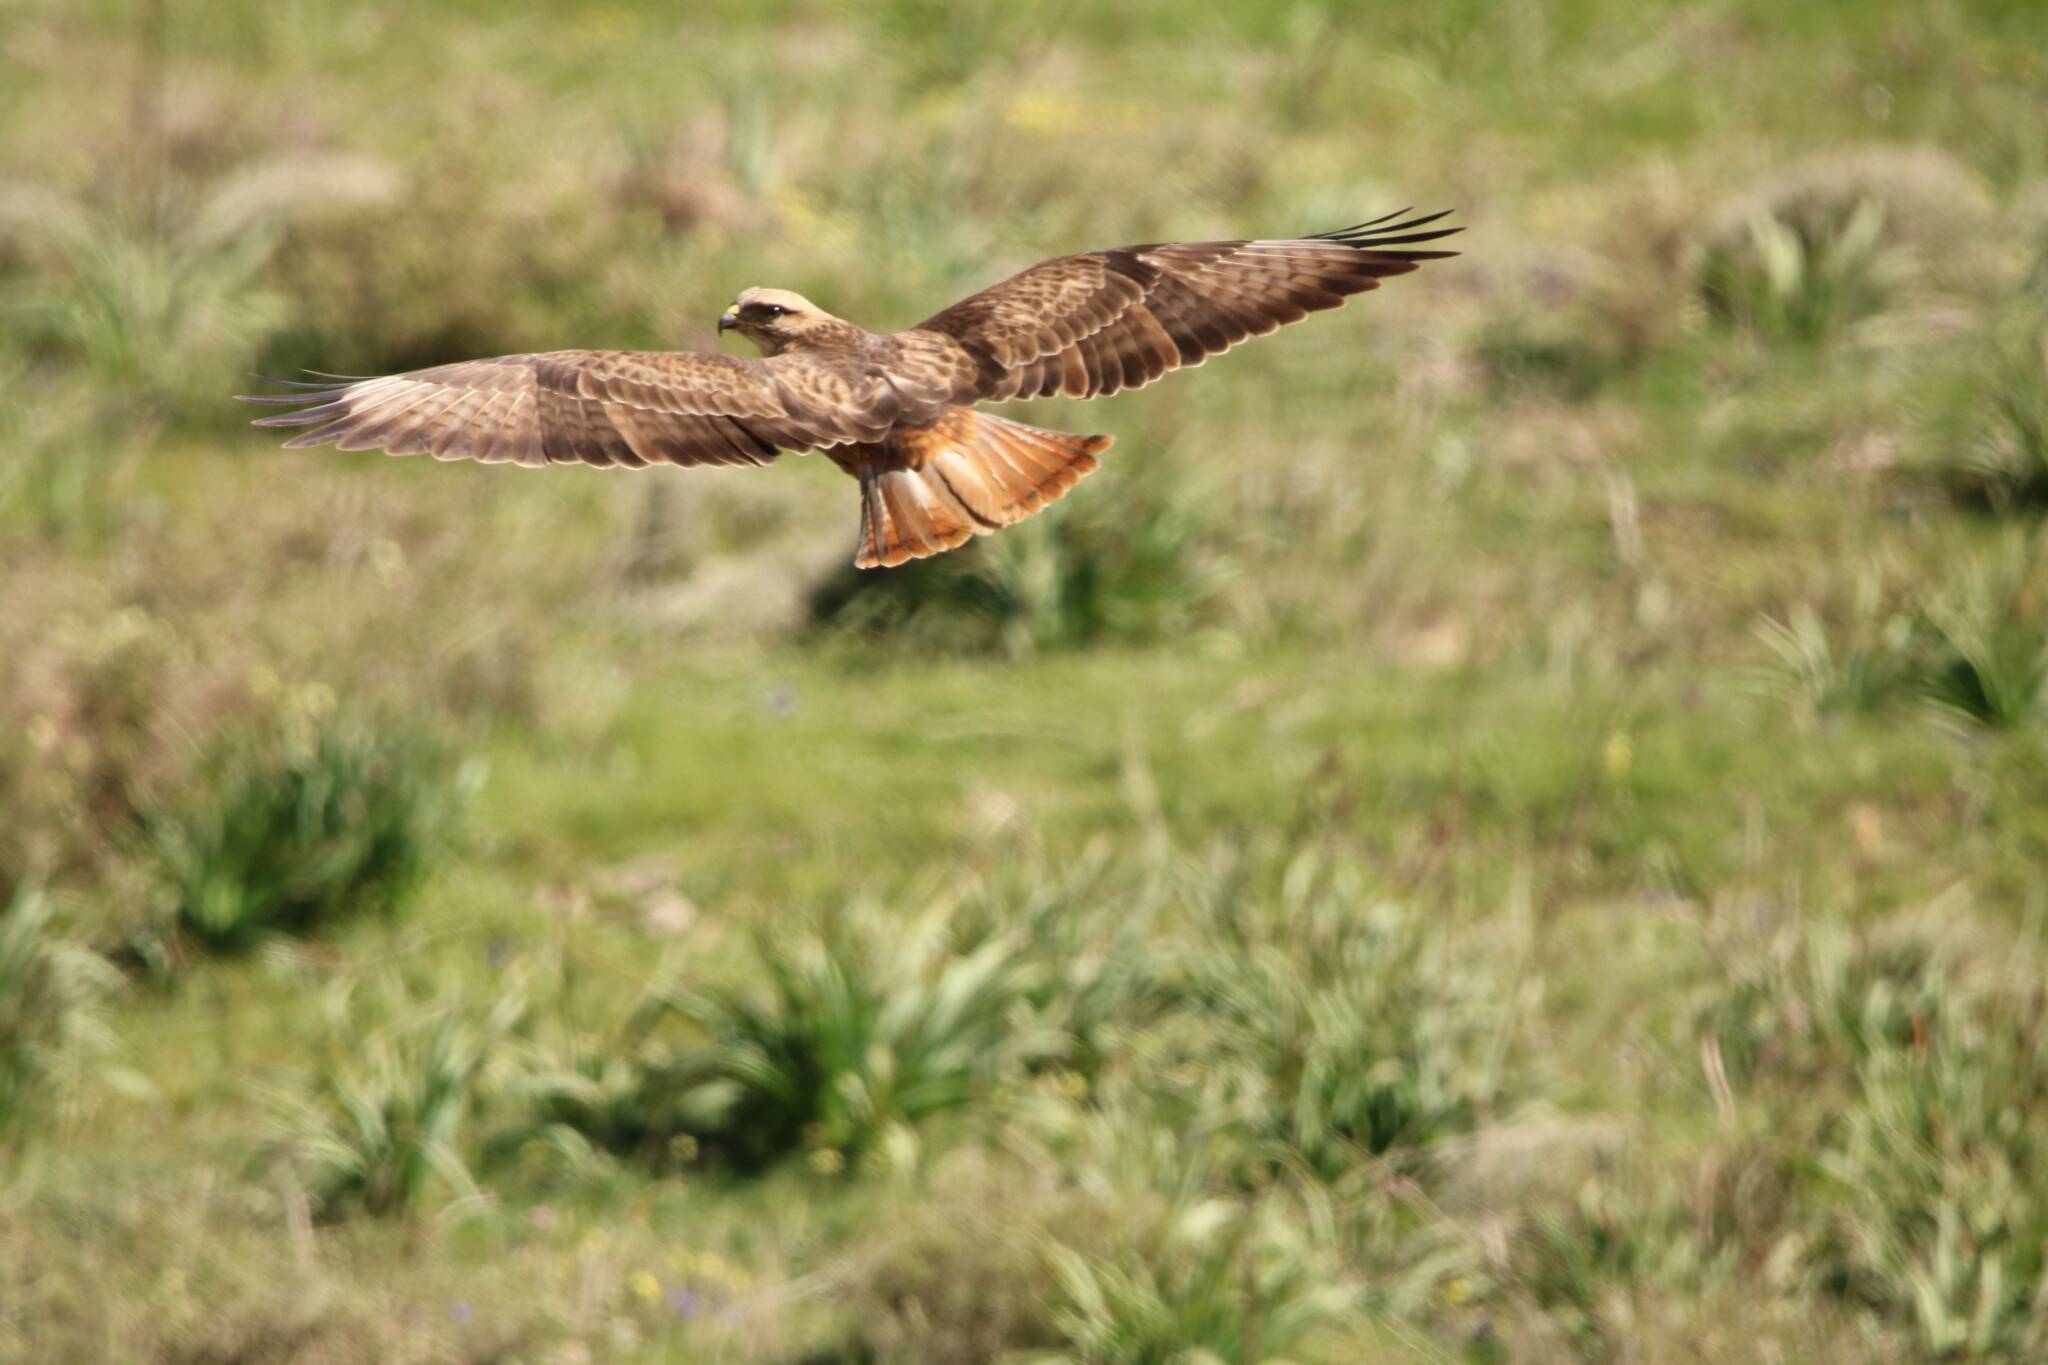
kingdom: Animalia
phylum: Chordata
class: Aves
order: Accipitriformes
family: Accipitridae
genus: Buteo
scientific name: Buteo rufinus
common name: Long-legged buzzard
